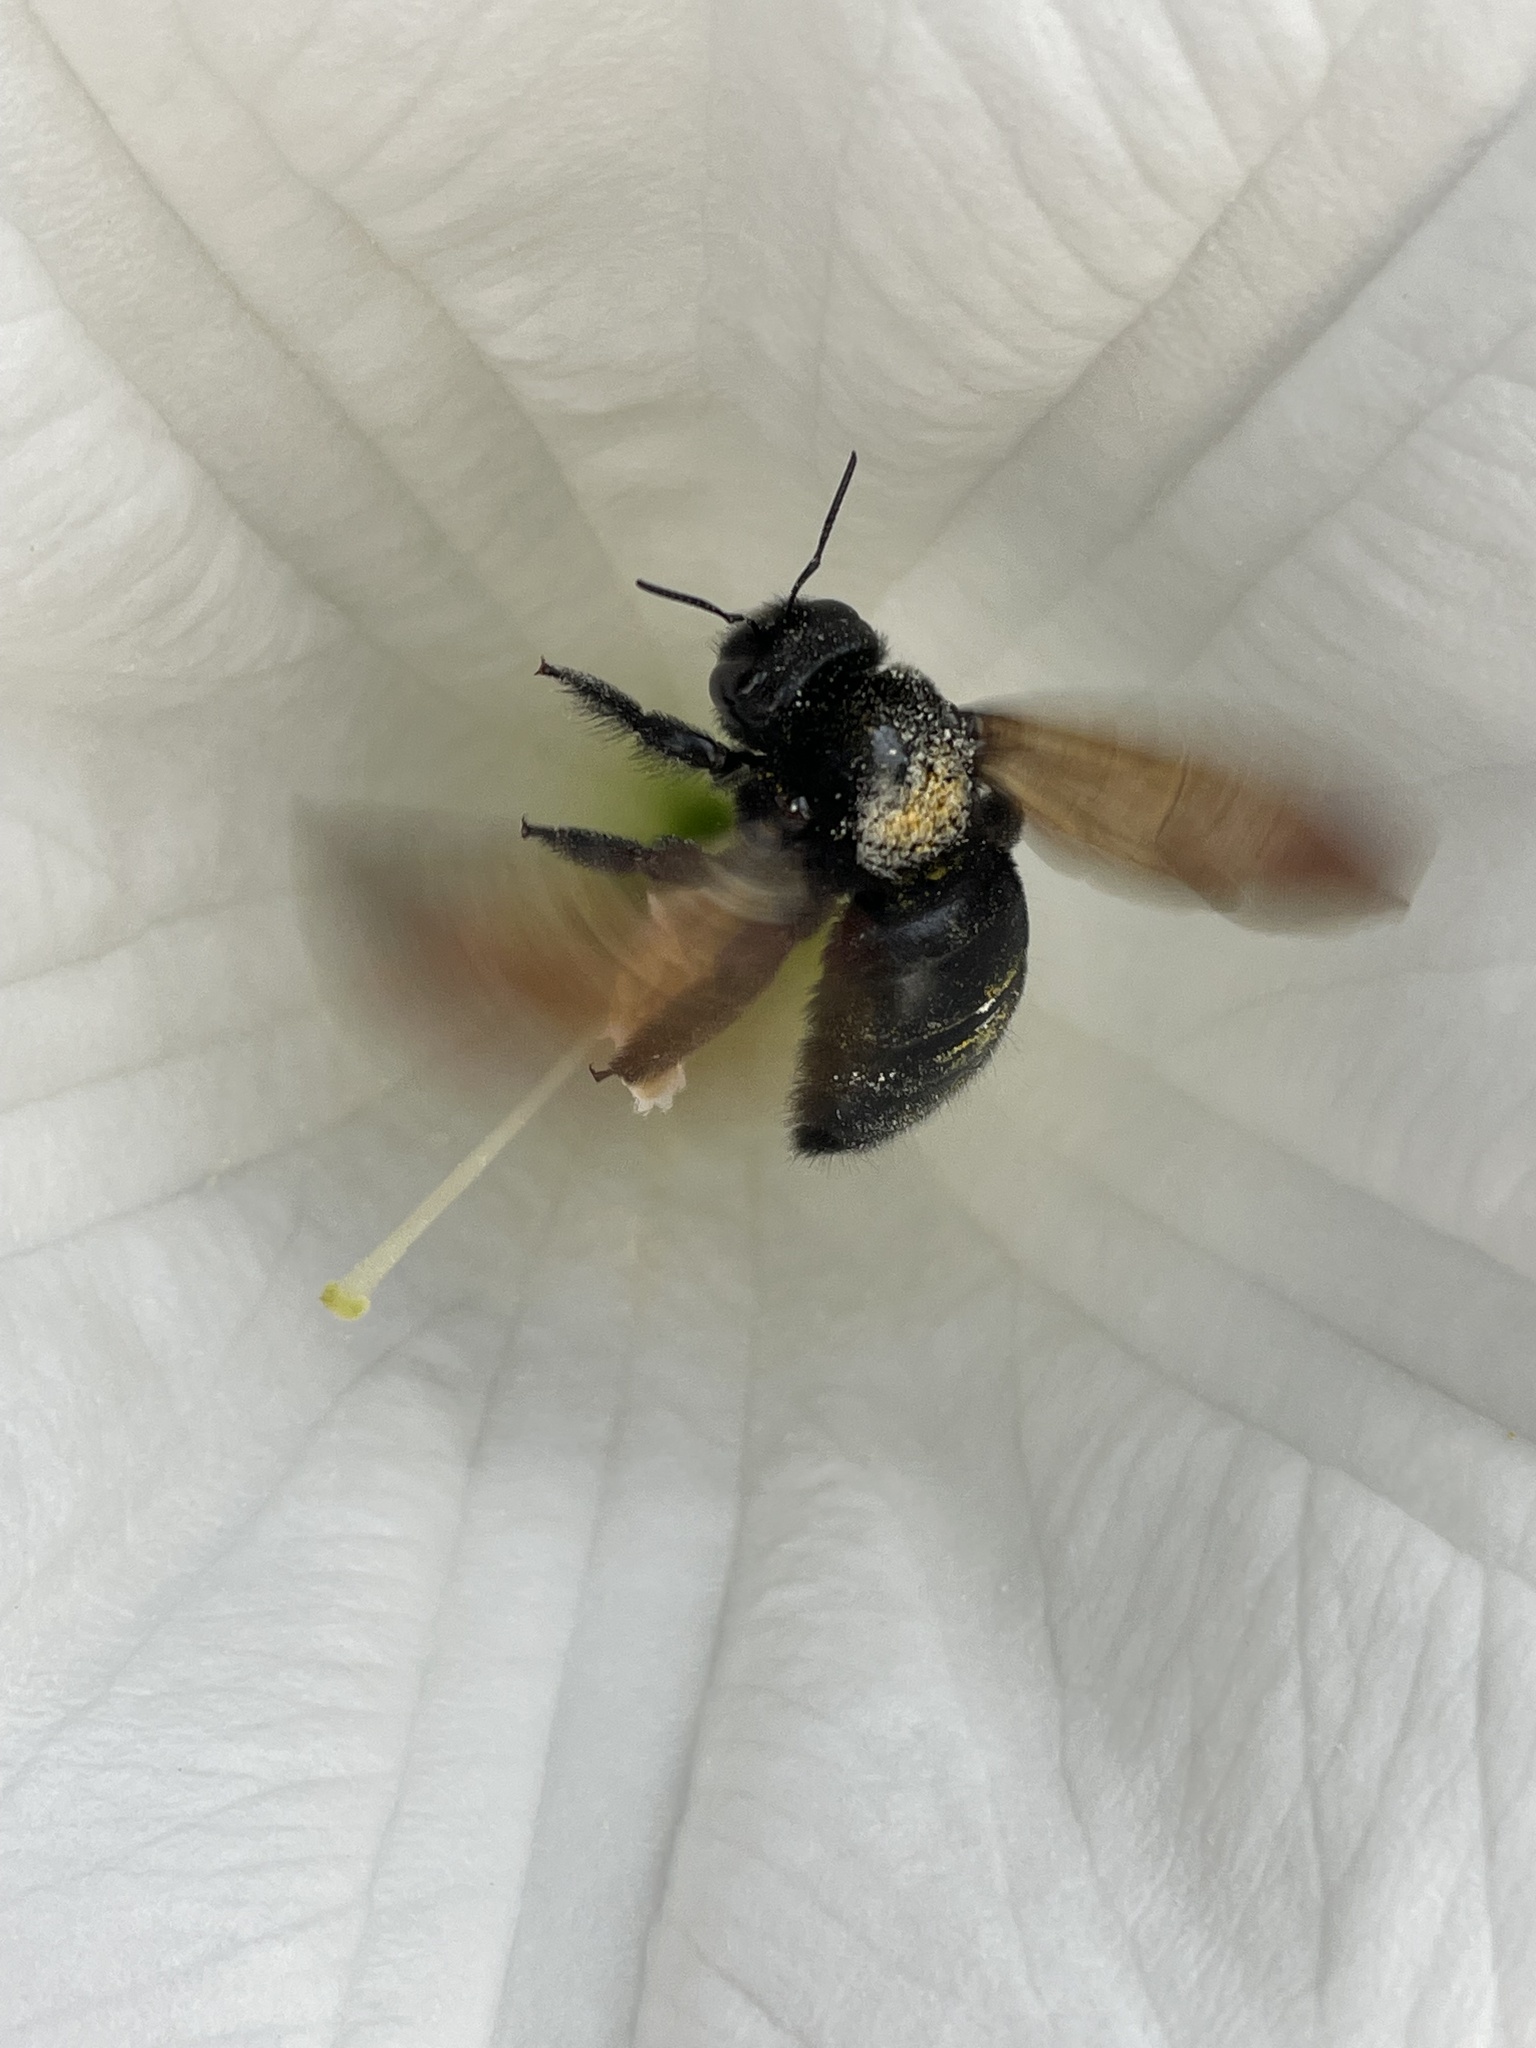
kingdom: Animalia
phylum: Arthropoda
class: Insecta
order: Hymenoptera
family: Apidae
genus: Xylocopa
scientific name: Xylocopa sonorina
